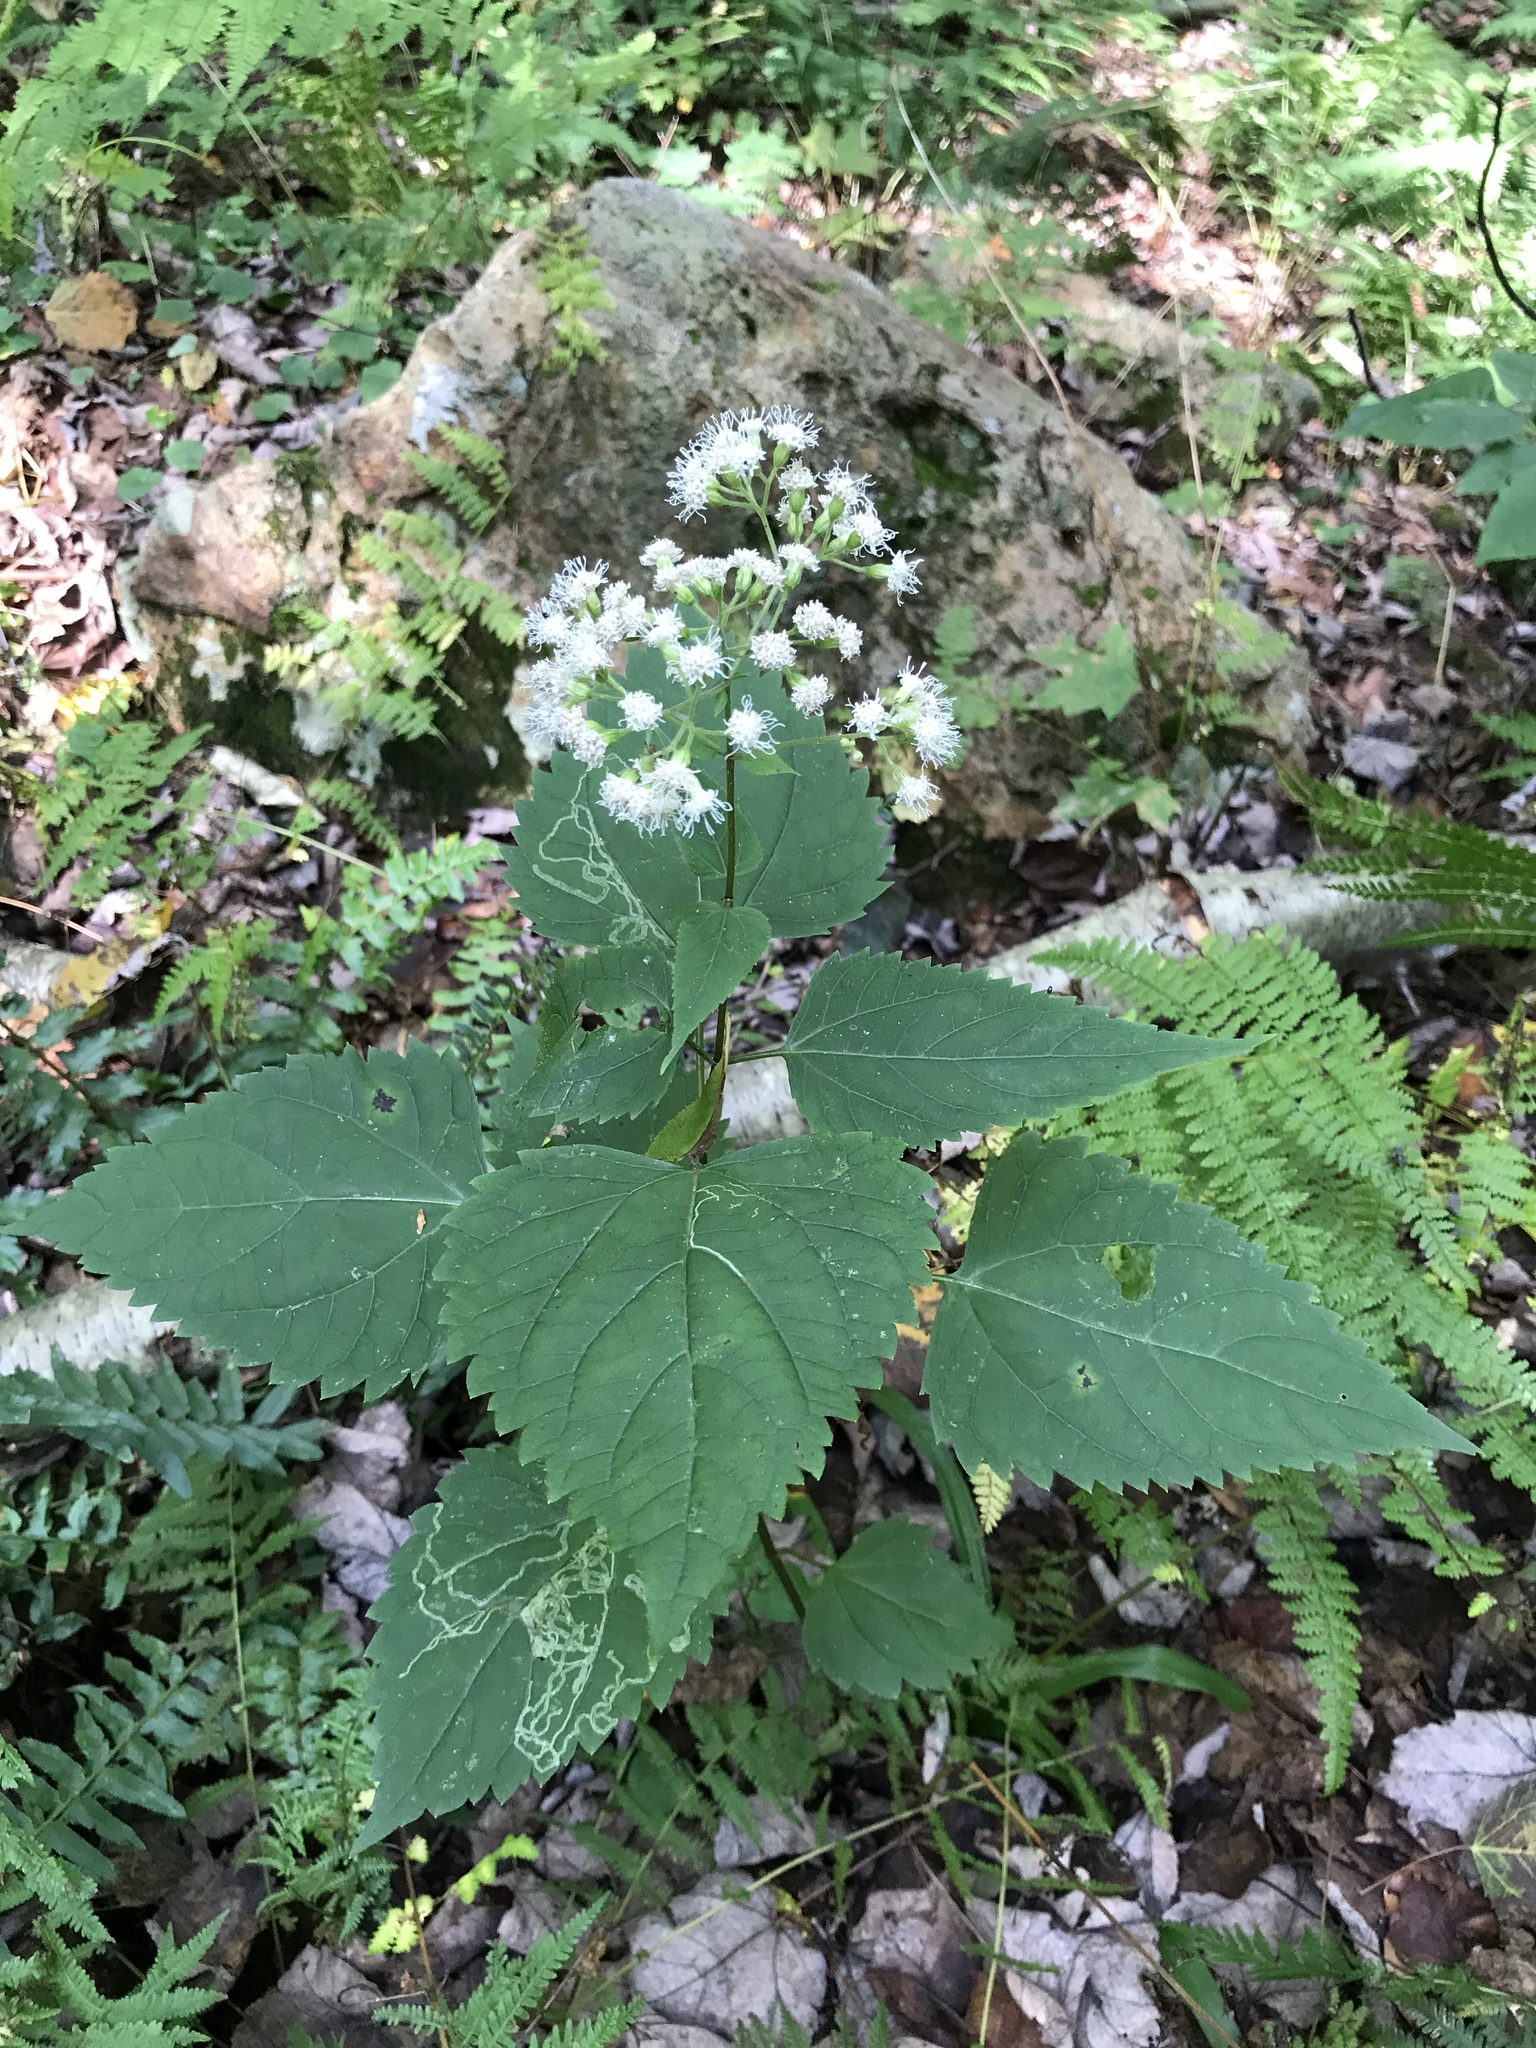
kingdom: Plantae
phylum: Tracheophyta
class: Magnoliopsida
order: Asterales
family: Asteraceae
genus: Ageratina
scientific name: Ageratina altissima
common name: White snakeroot
